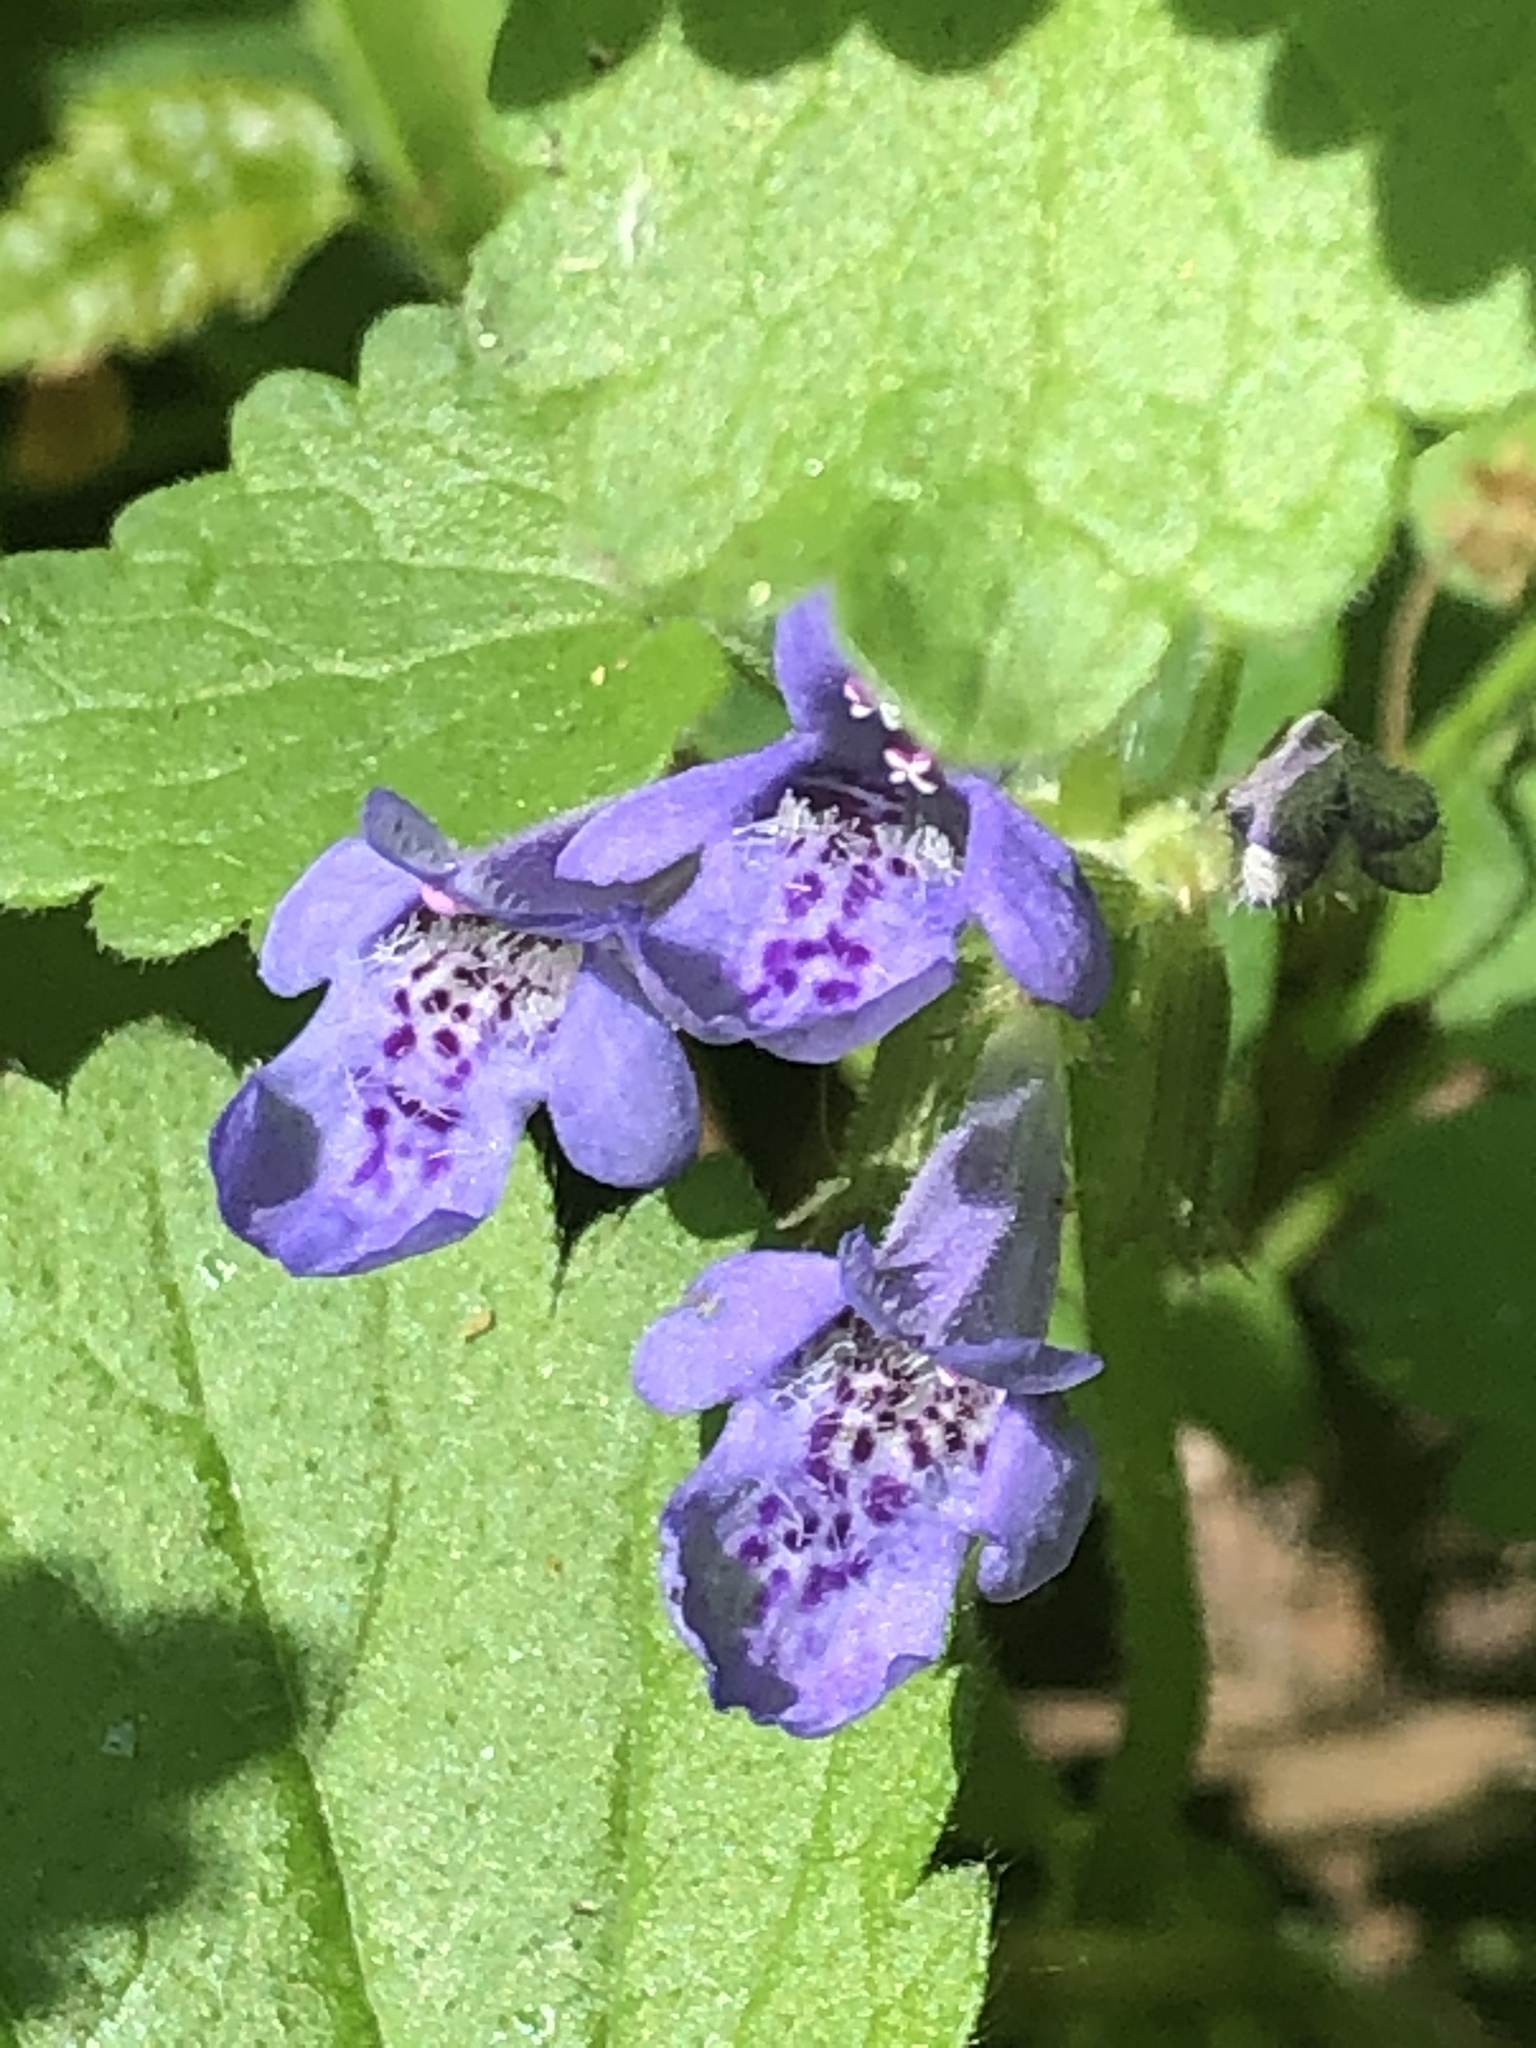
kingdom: Plantae
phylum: Tracheophyta
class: Magnoliopsida
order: Lamiales
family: Lamiaceae
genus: Glechoma
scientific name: Glechoma hederacea
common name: Ground ivy
